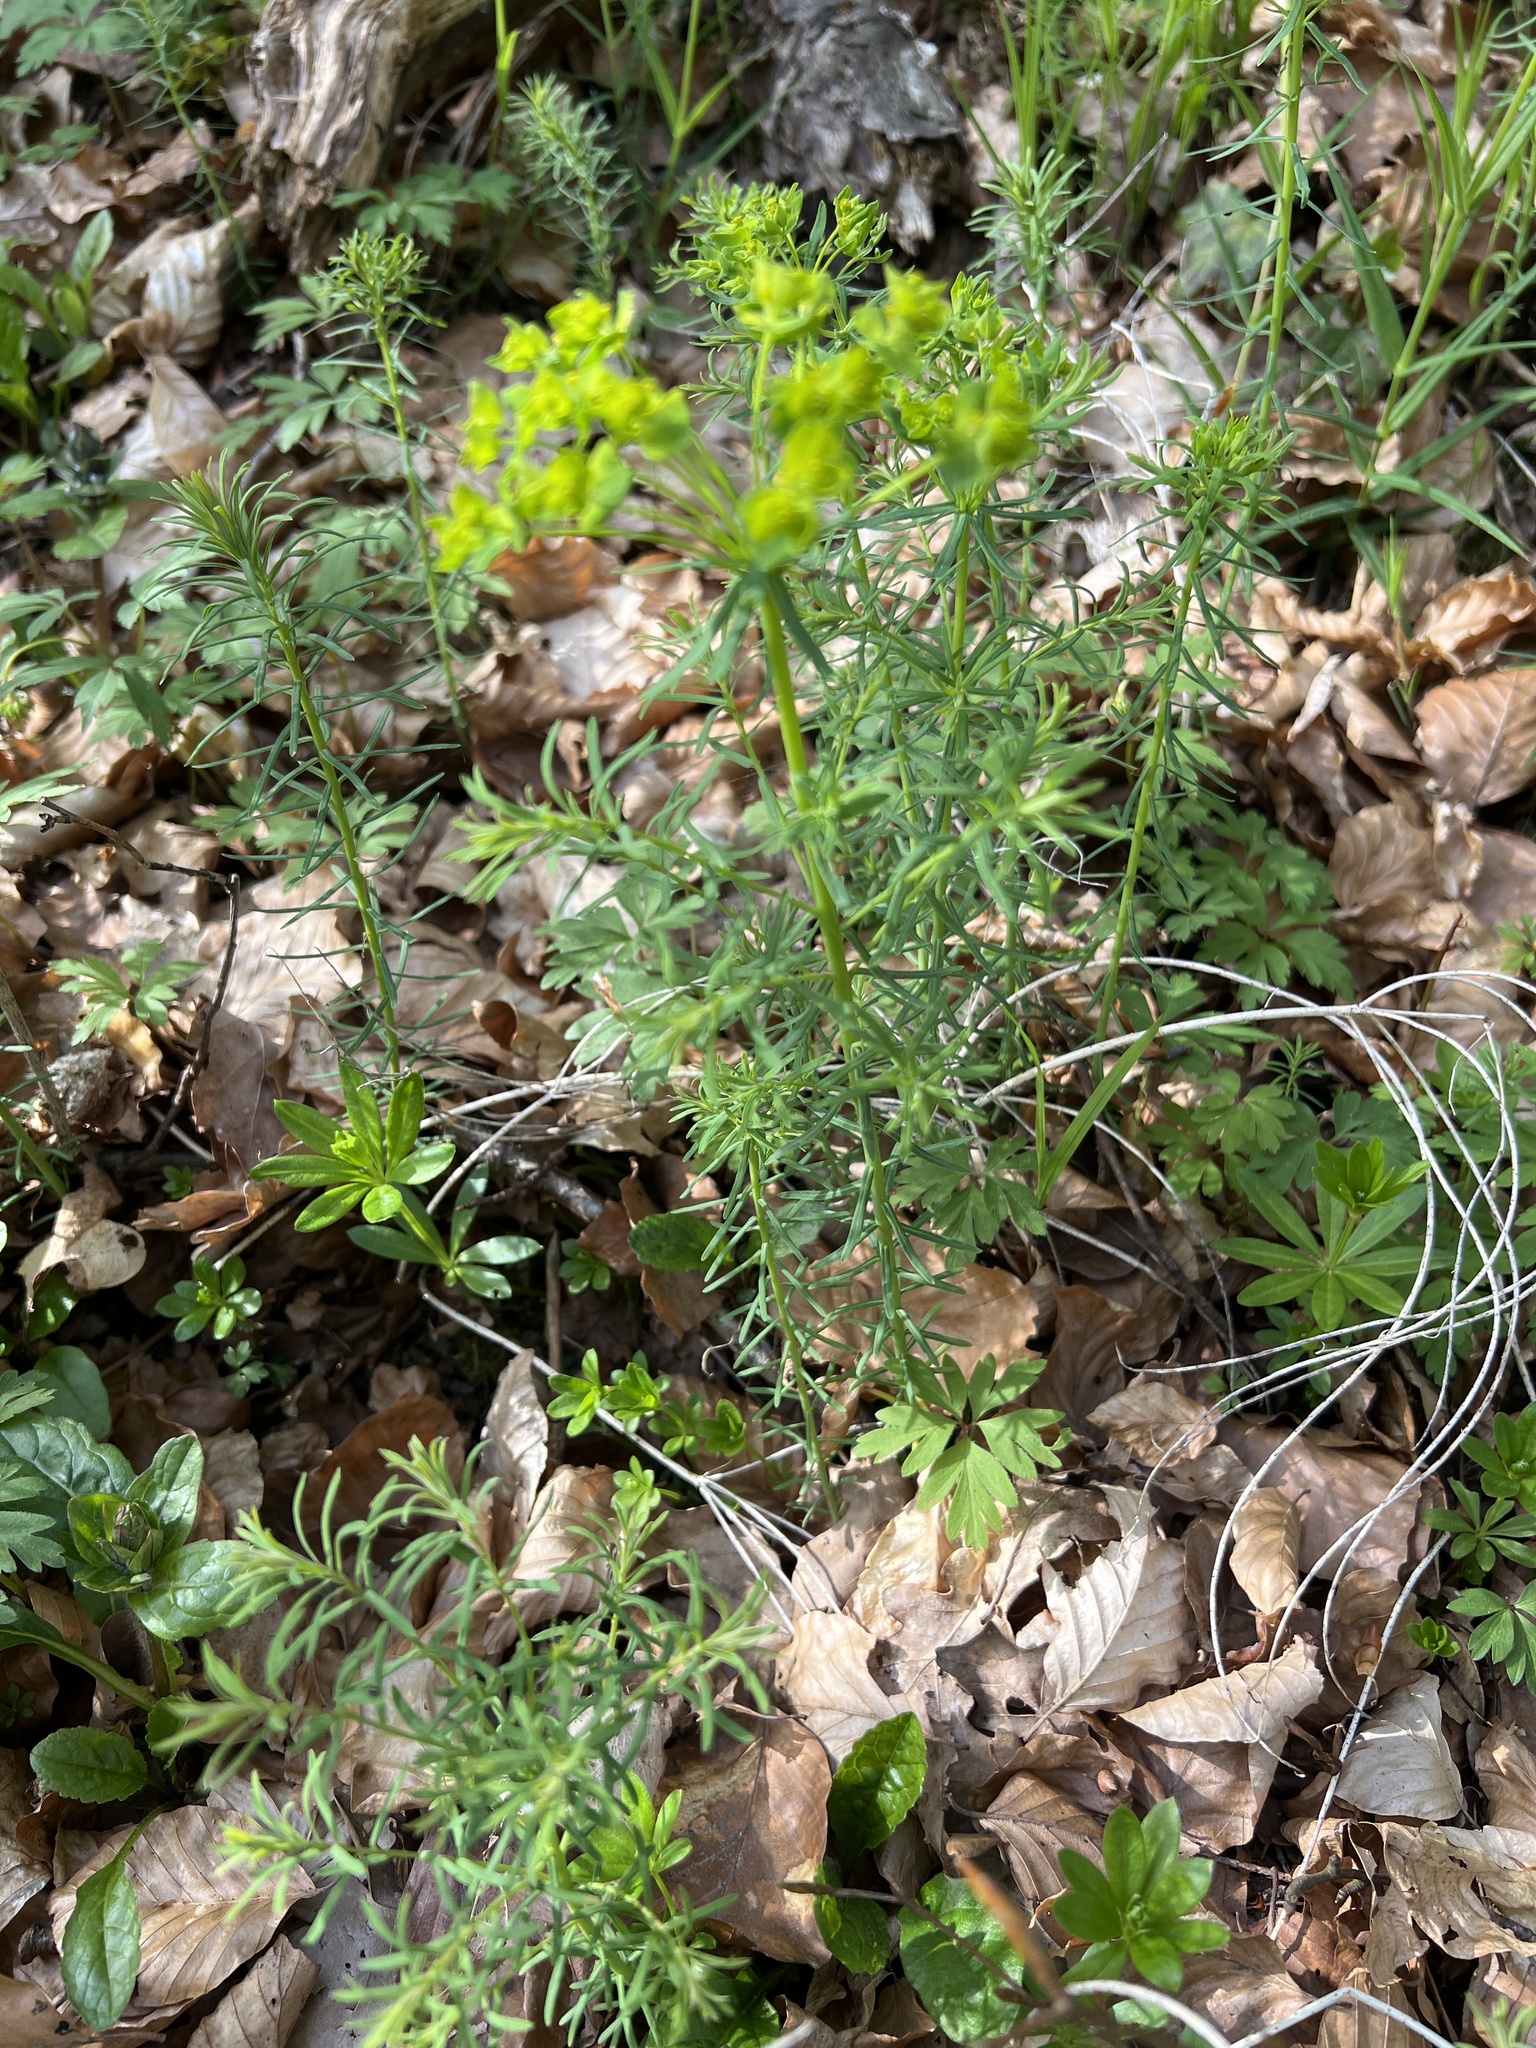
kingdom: Plantae
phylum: Tracheophyta
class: Magnoliopsida
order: Malpighiales
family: Euphorbiaceae
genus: Euphorbia
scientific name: Euphorbia cyparissias
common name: Cypress spurge
